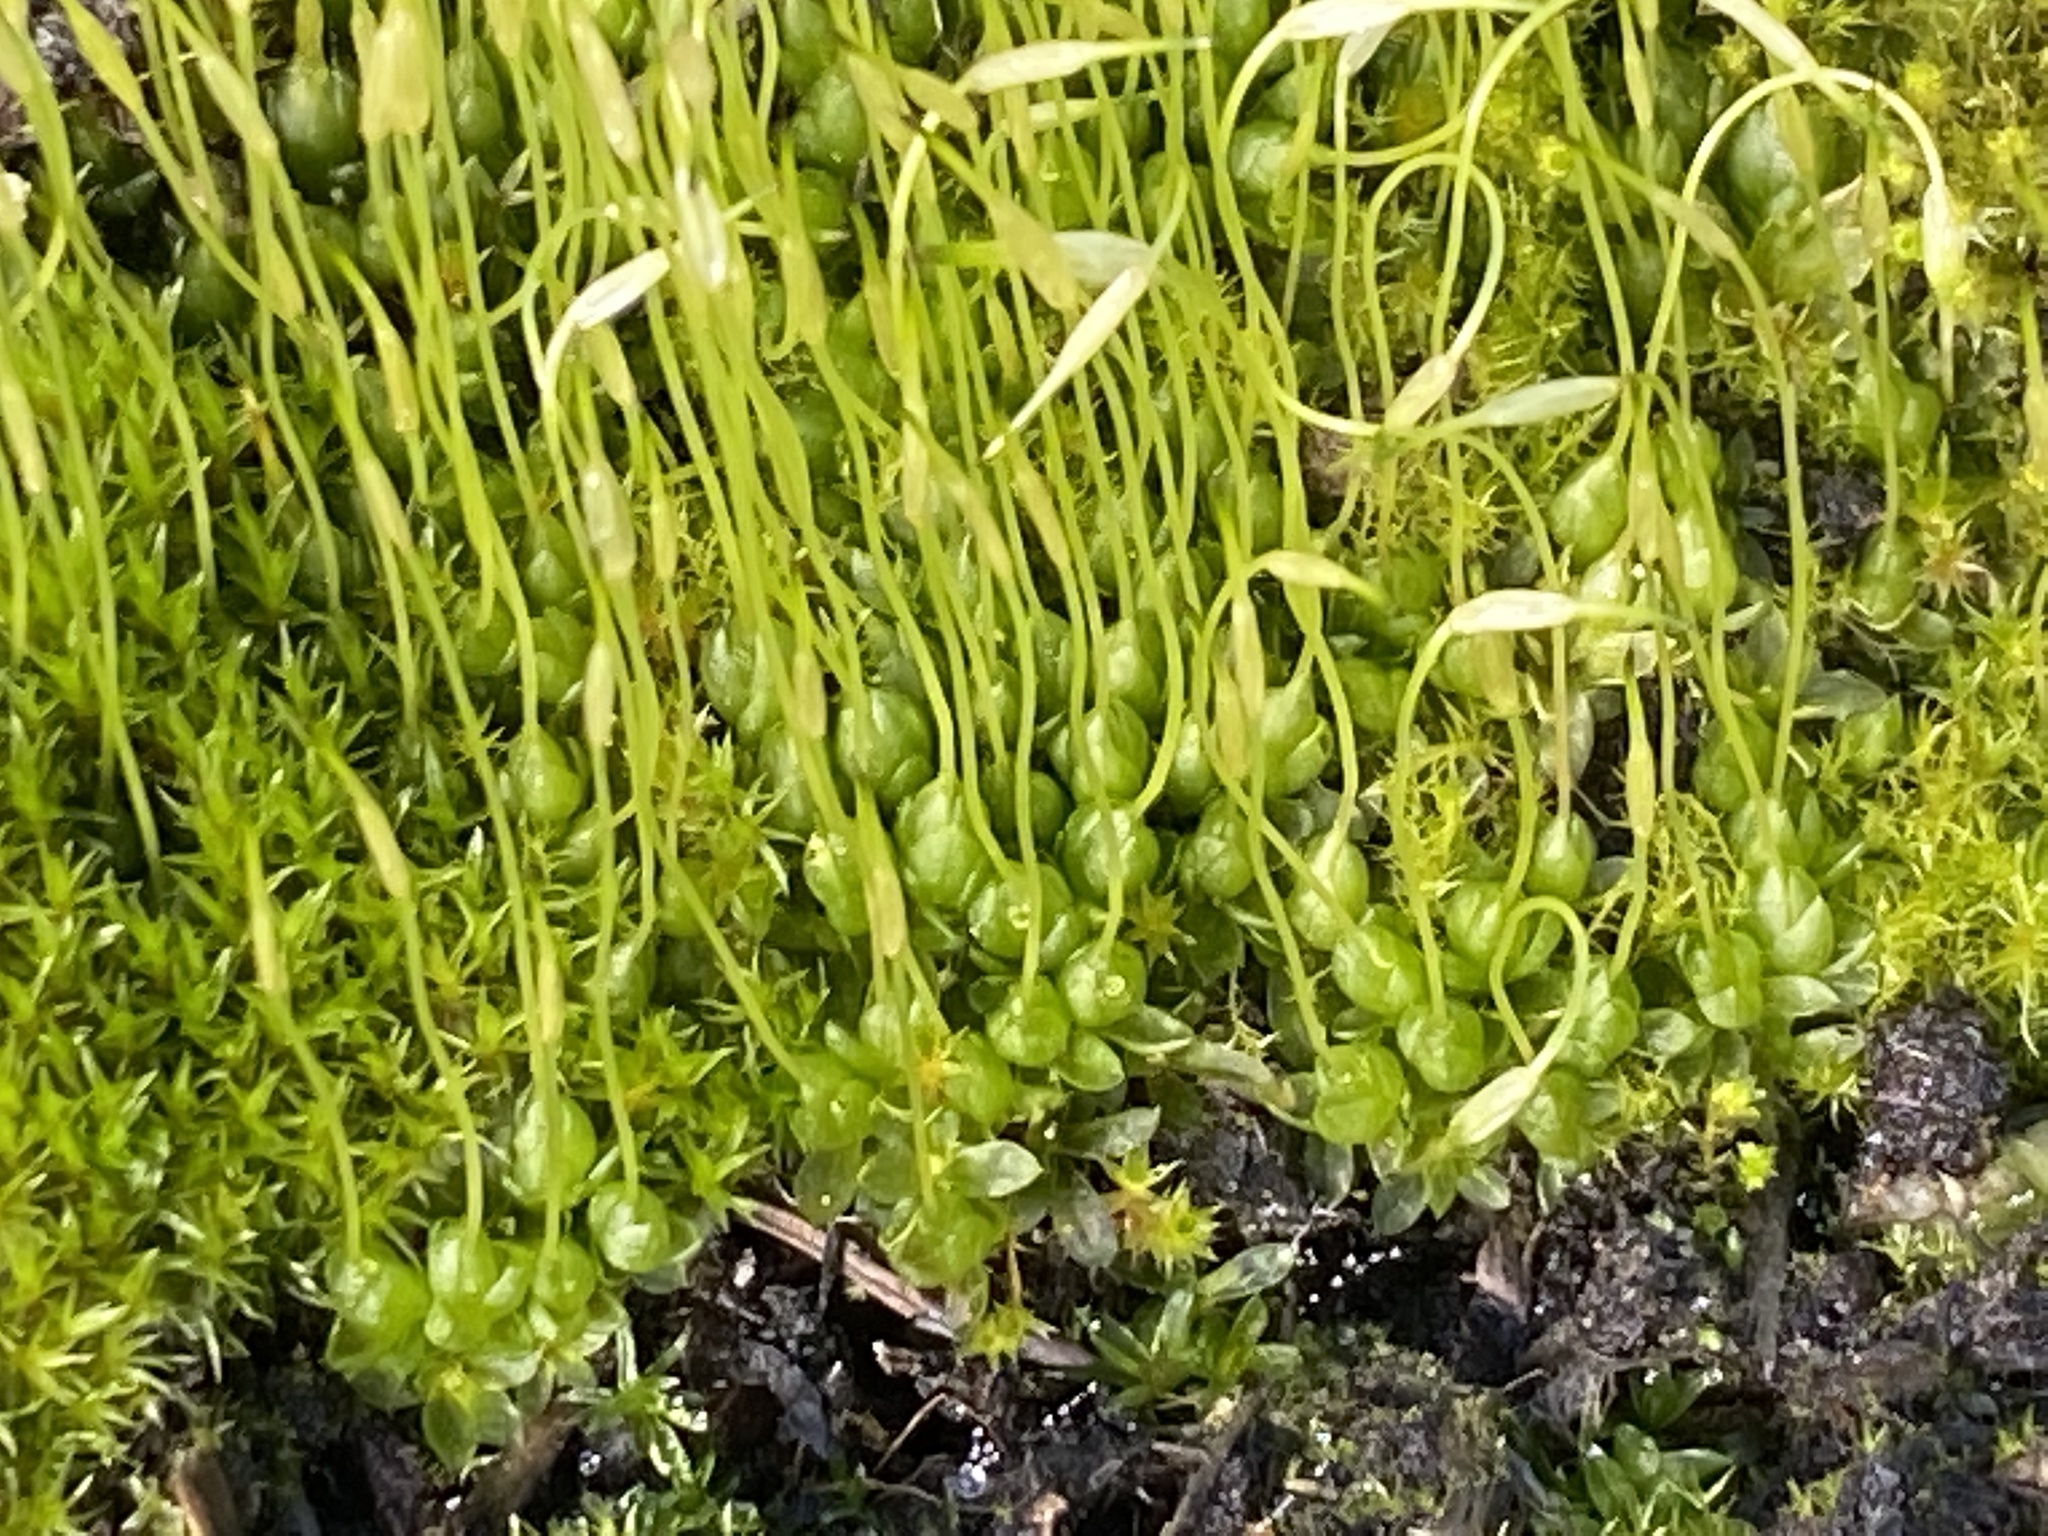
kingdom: Plantae
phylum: Bryophyta
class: Bryopsida
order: Funariales
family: Funariaceae
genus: Funaria
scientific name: Funaria hygrometrica
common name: Common cord moss
